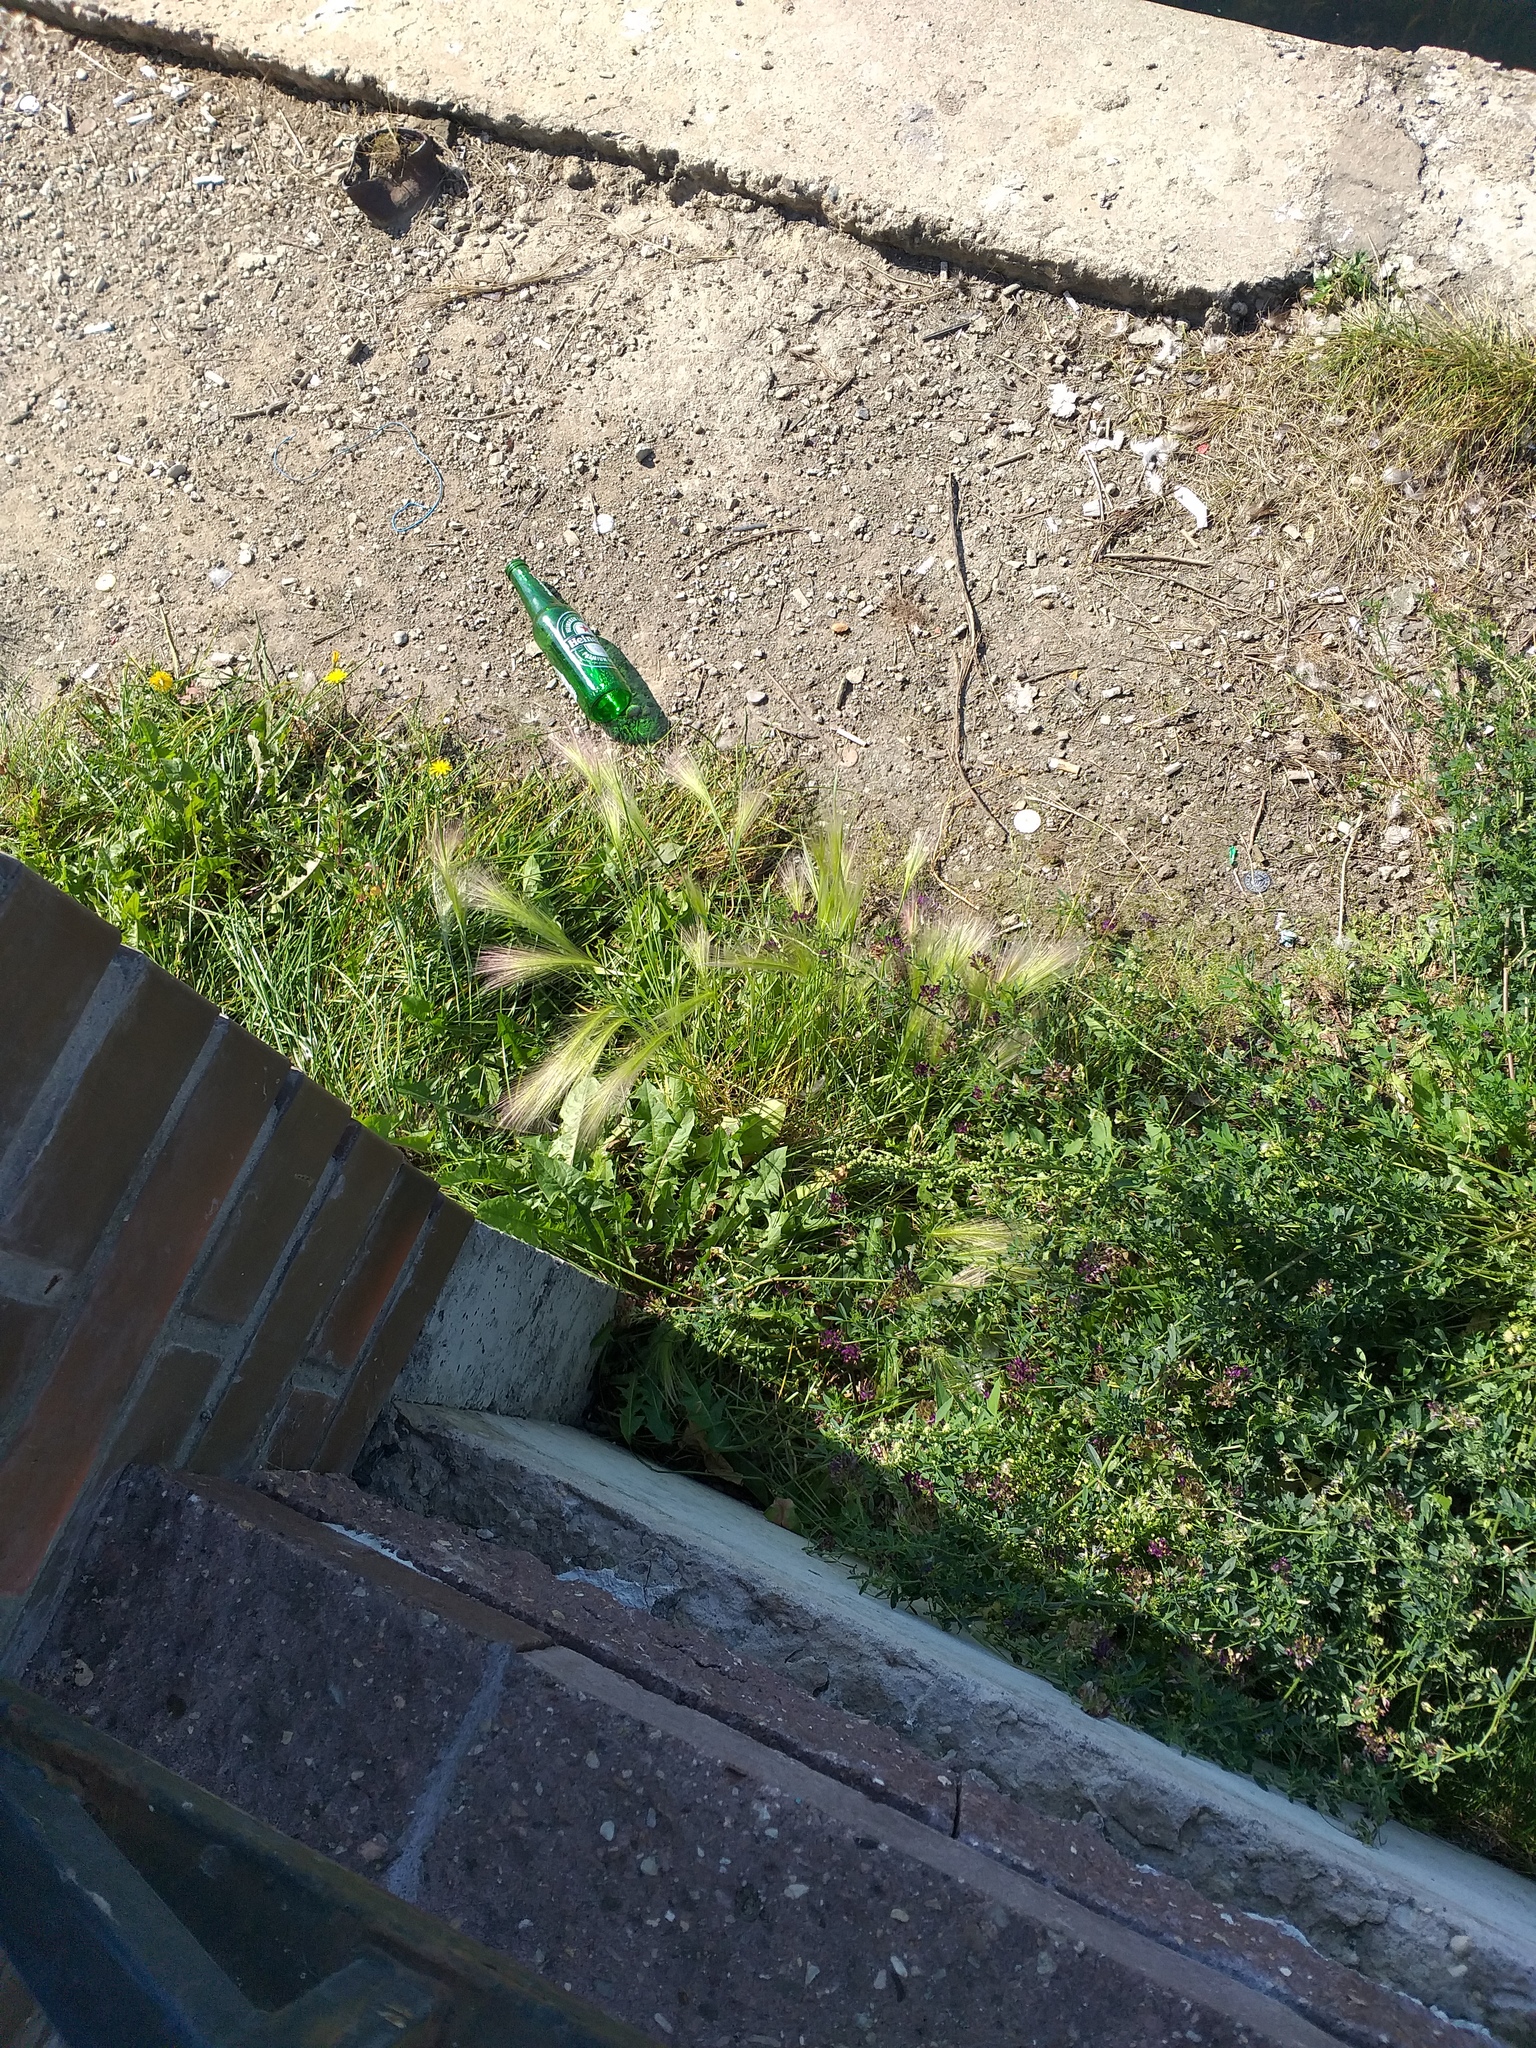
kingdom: Plantae
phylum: Tracheophyta
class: Liliopsida
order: Poales
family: Poaceae
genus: Hordeum
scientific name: Hordeum jubatum
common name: Foxtail barley
